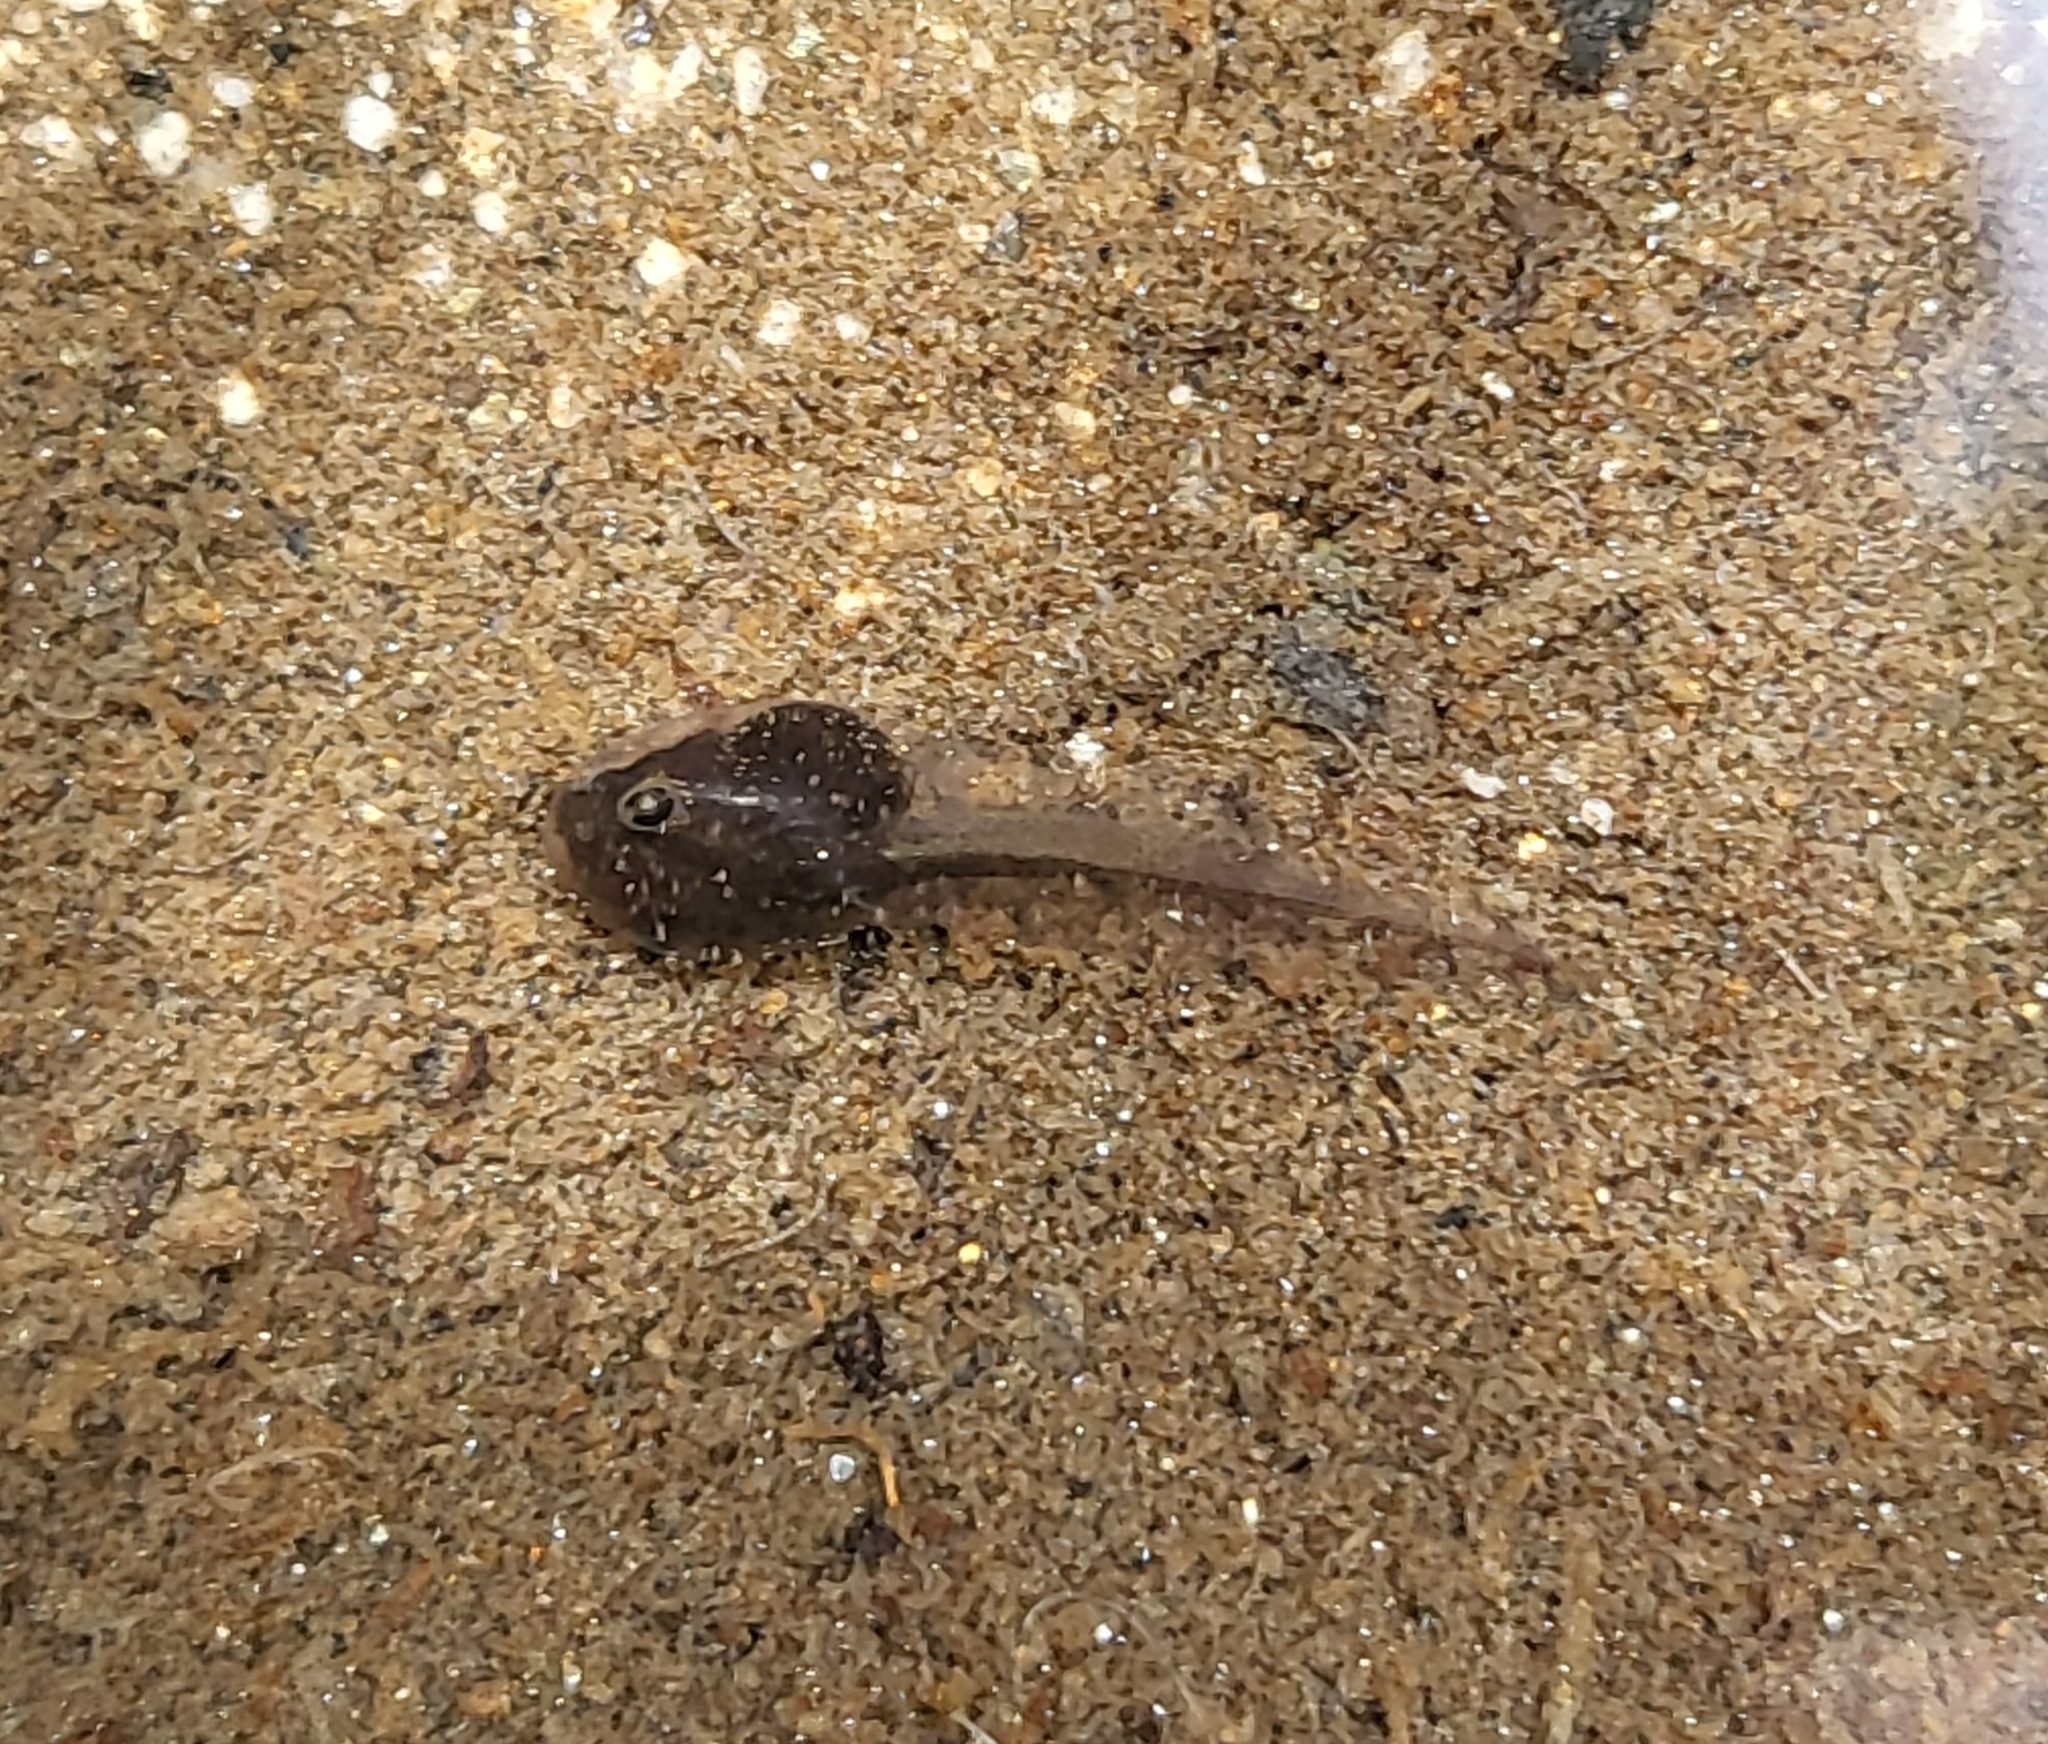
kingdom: Animalia
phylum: Chordata
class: Amphibia
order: Anura
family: Hylidae
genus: Pseudacris
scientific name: Pseudacris regilla
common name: Pacific chorus frog
